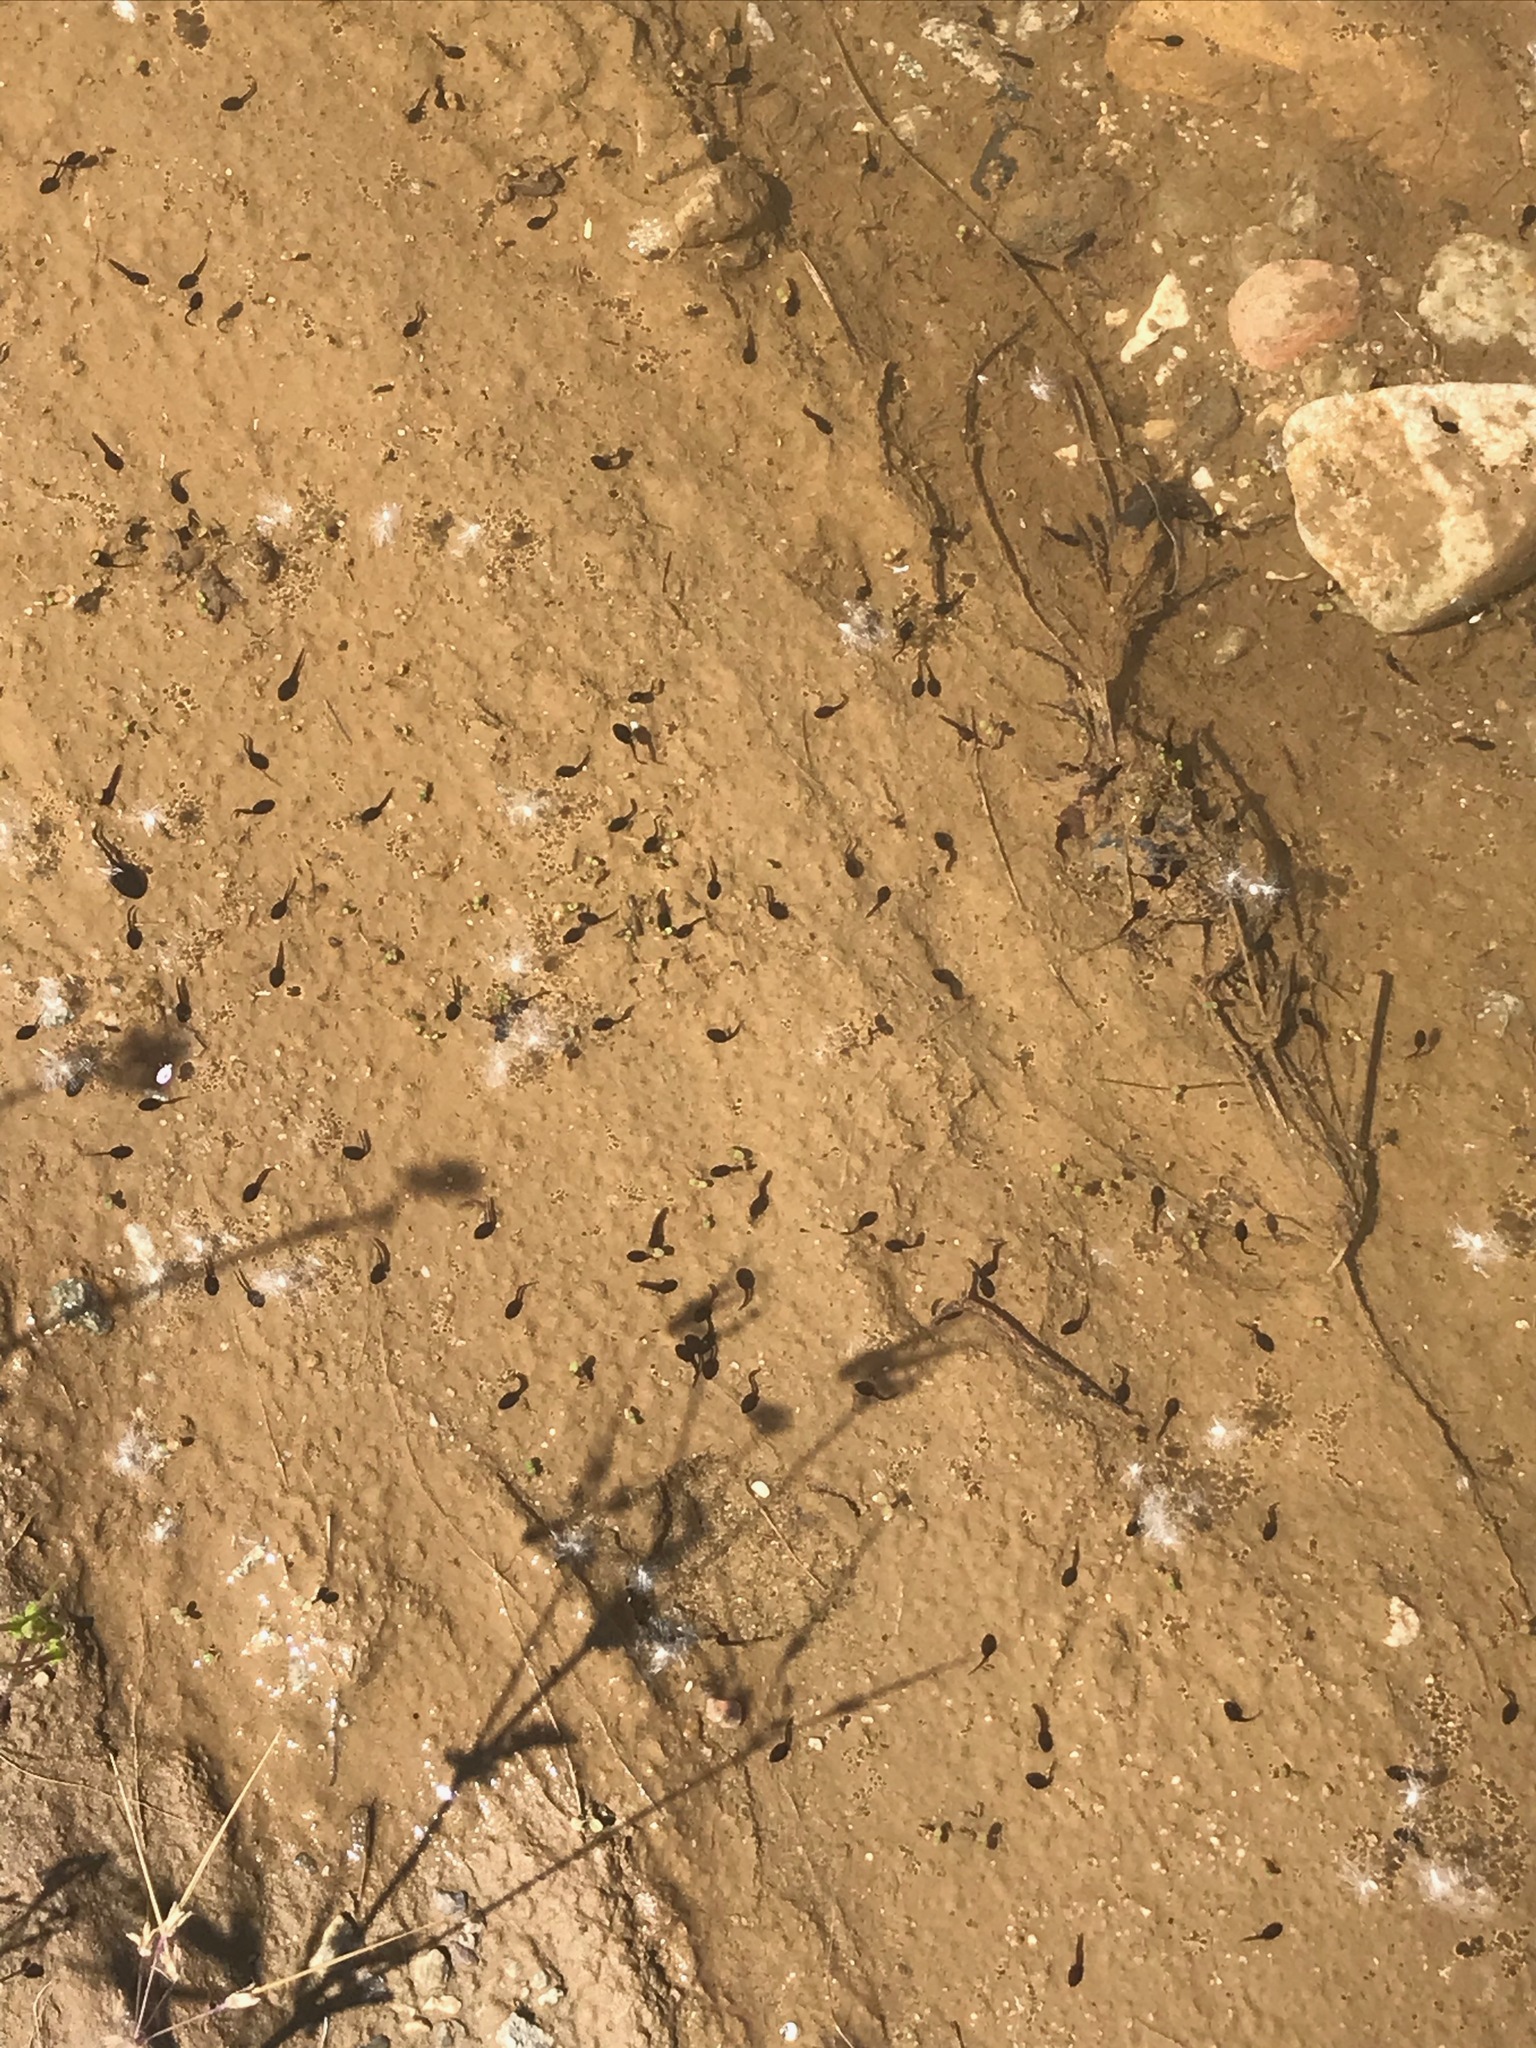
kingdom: Animalia
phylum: Chordata
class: Amphibia
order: Anura
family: Bufonidae
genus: Anaxyrus
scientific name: Anaxyrus boreas
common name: Western toad
